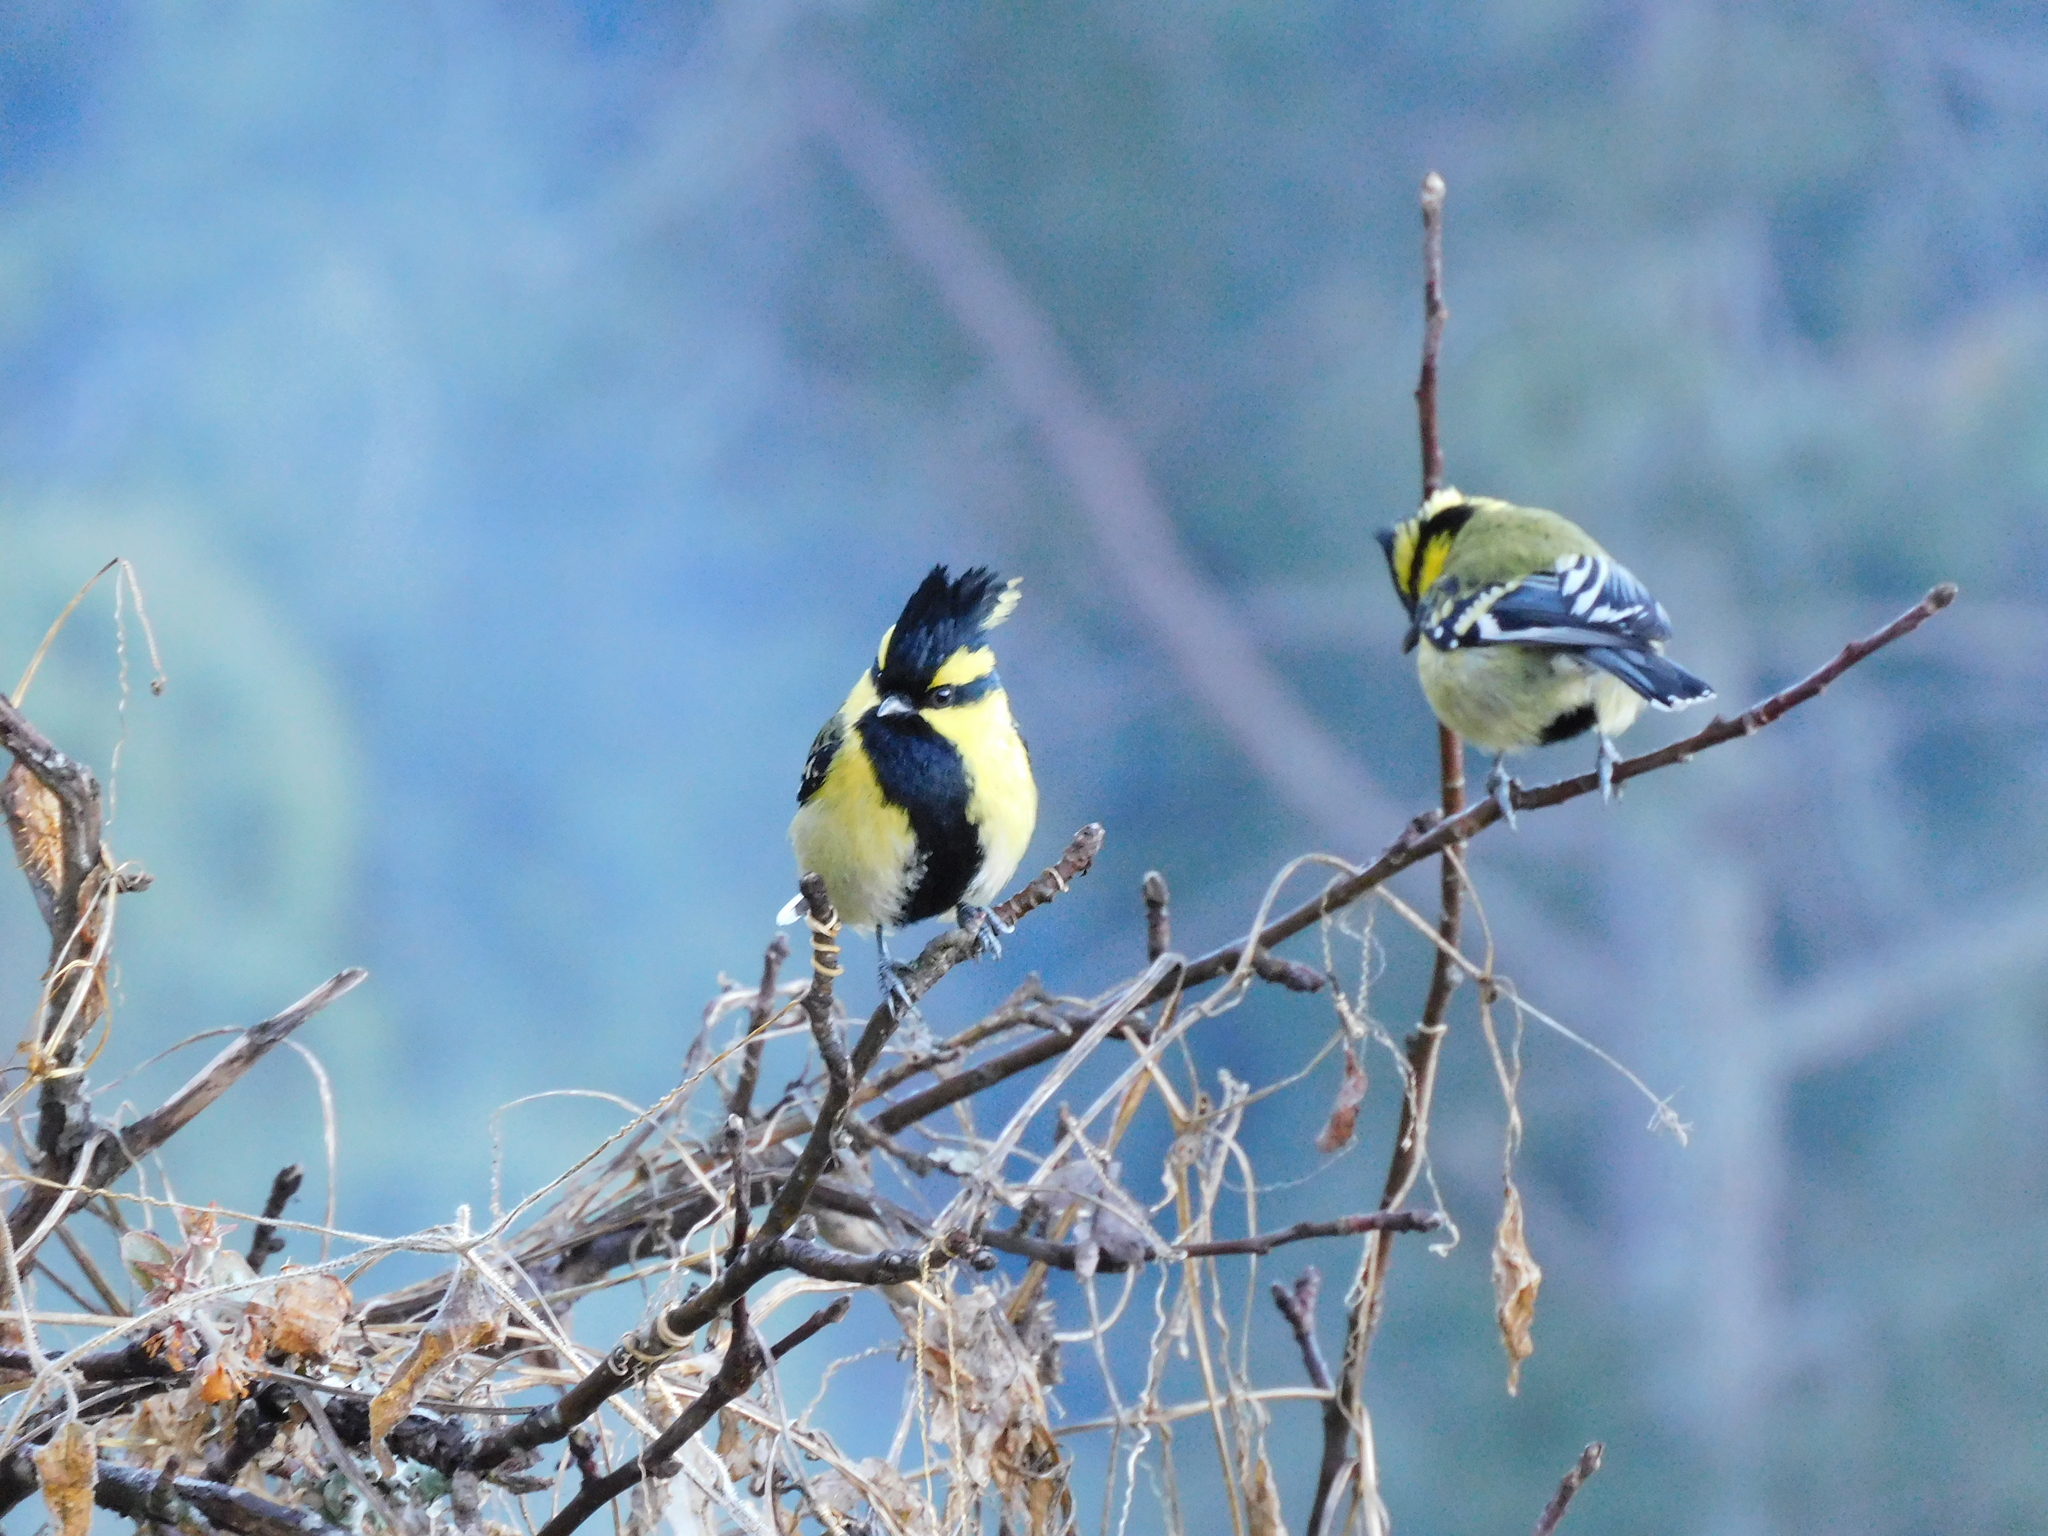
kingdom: Animalia
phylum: Chordata
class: Aves
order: Passeriformes
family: Paridae
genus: Parus
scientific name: Parus xanthogenys
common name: Black-lored tit
